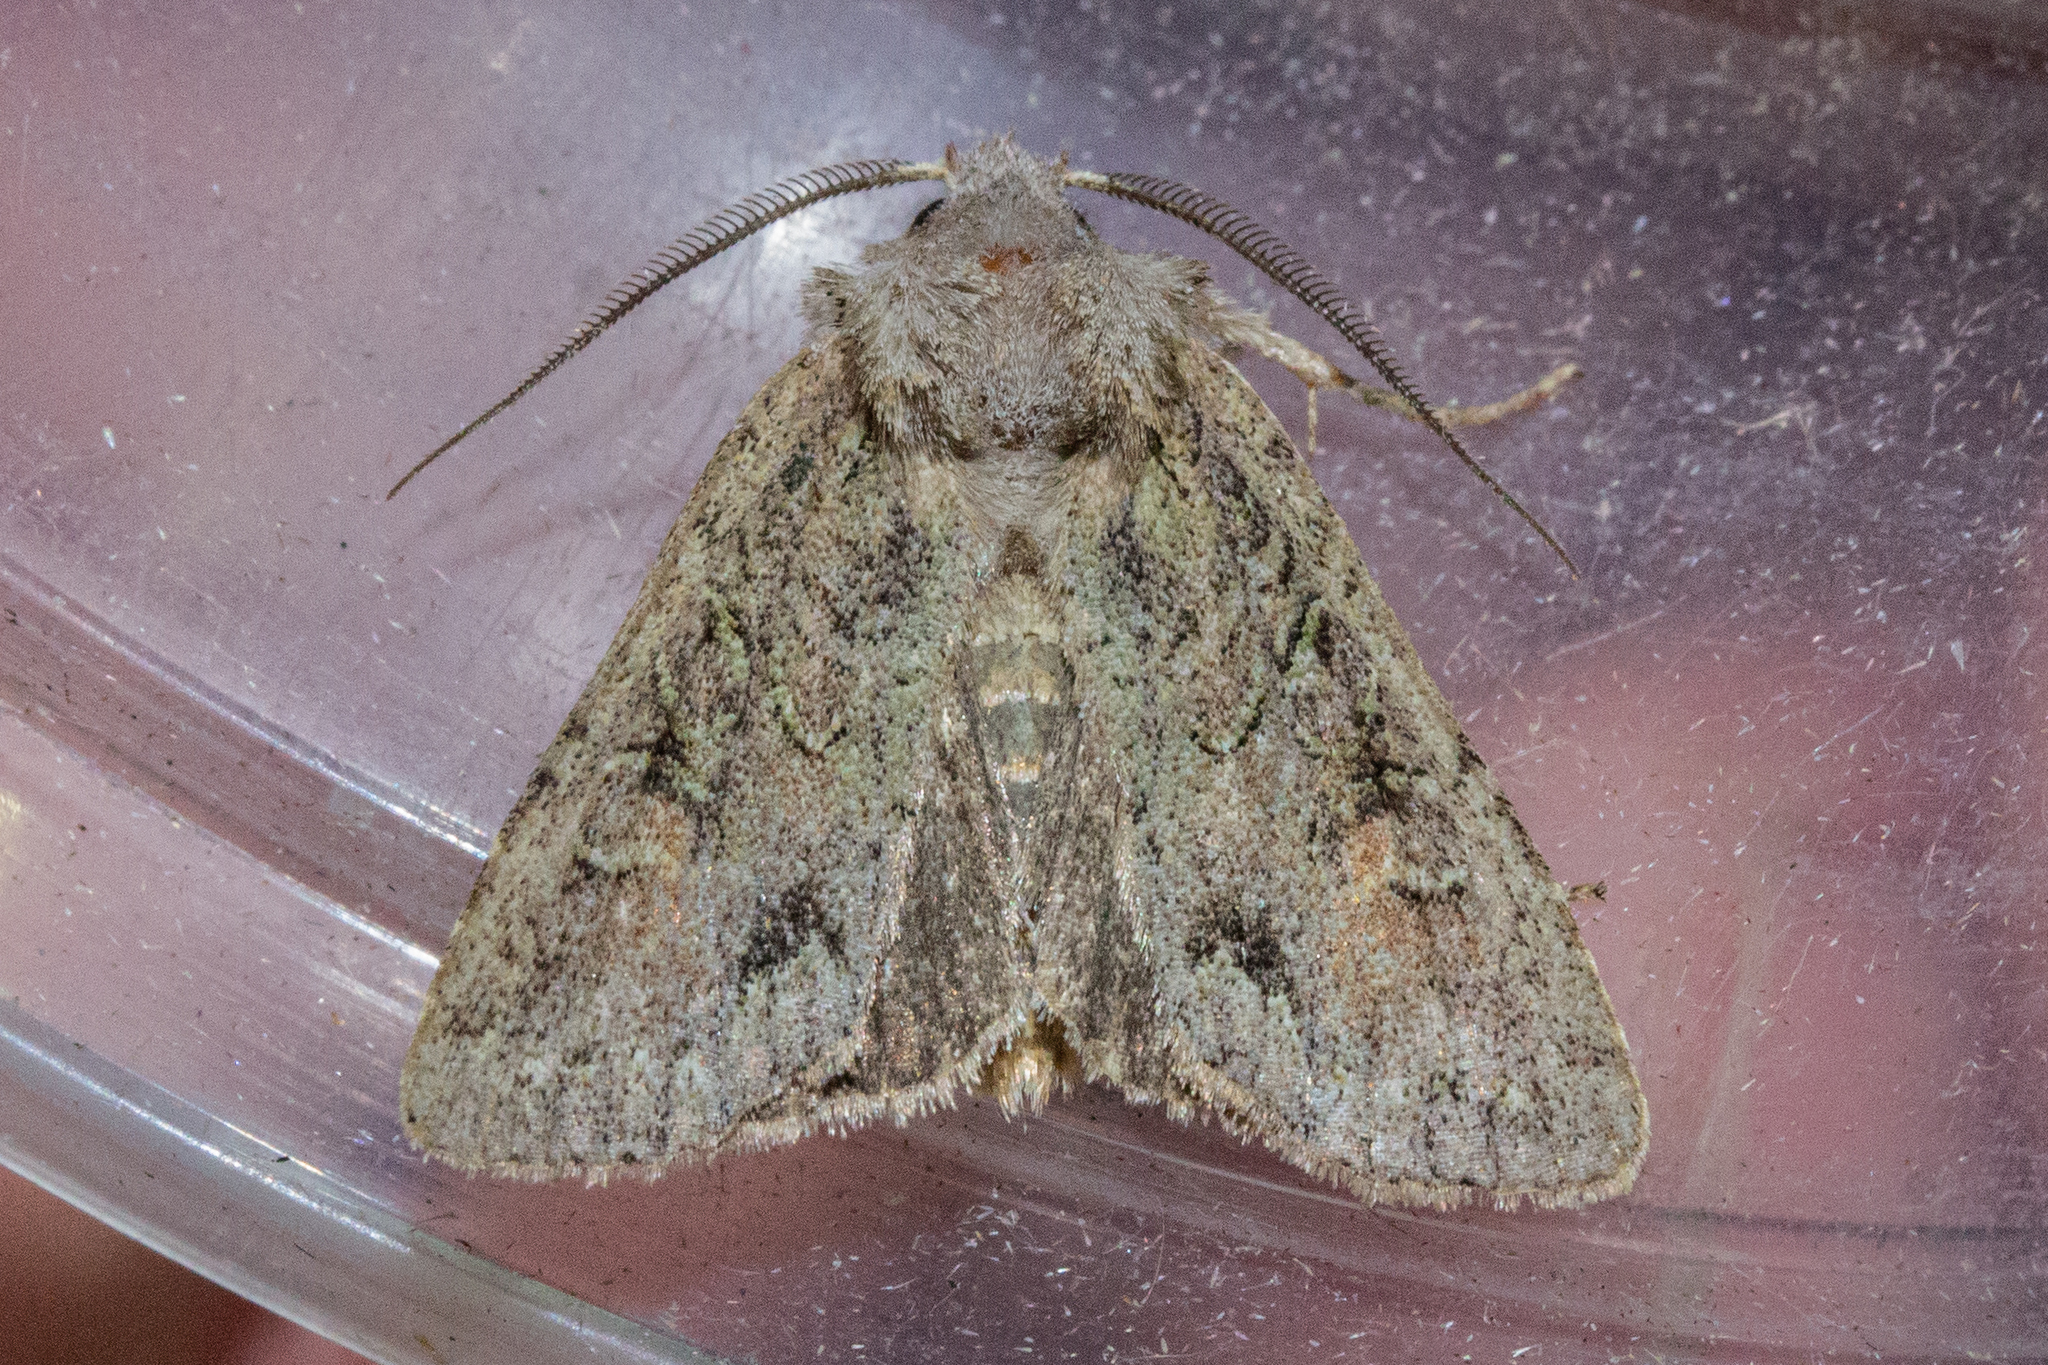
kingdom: Animalia
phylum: Arthropoda
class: Insecta
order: Lepidoptera
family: Noctuidae
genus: Ichneutica
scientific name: Ichneutica skelloni
